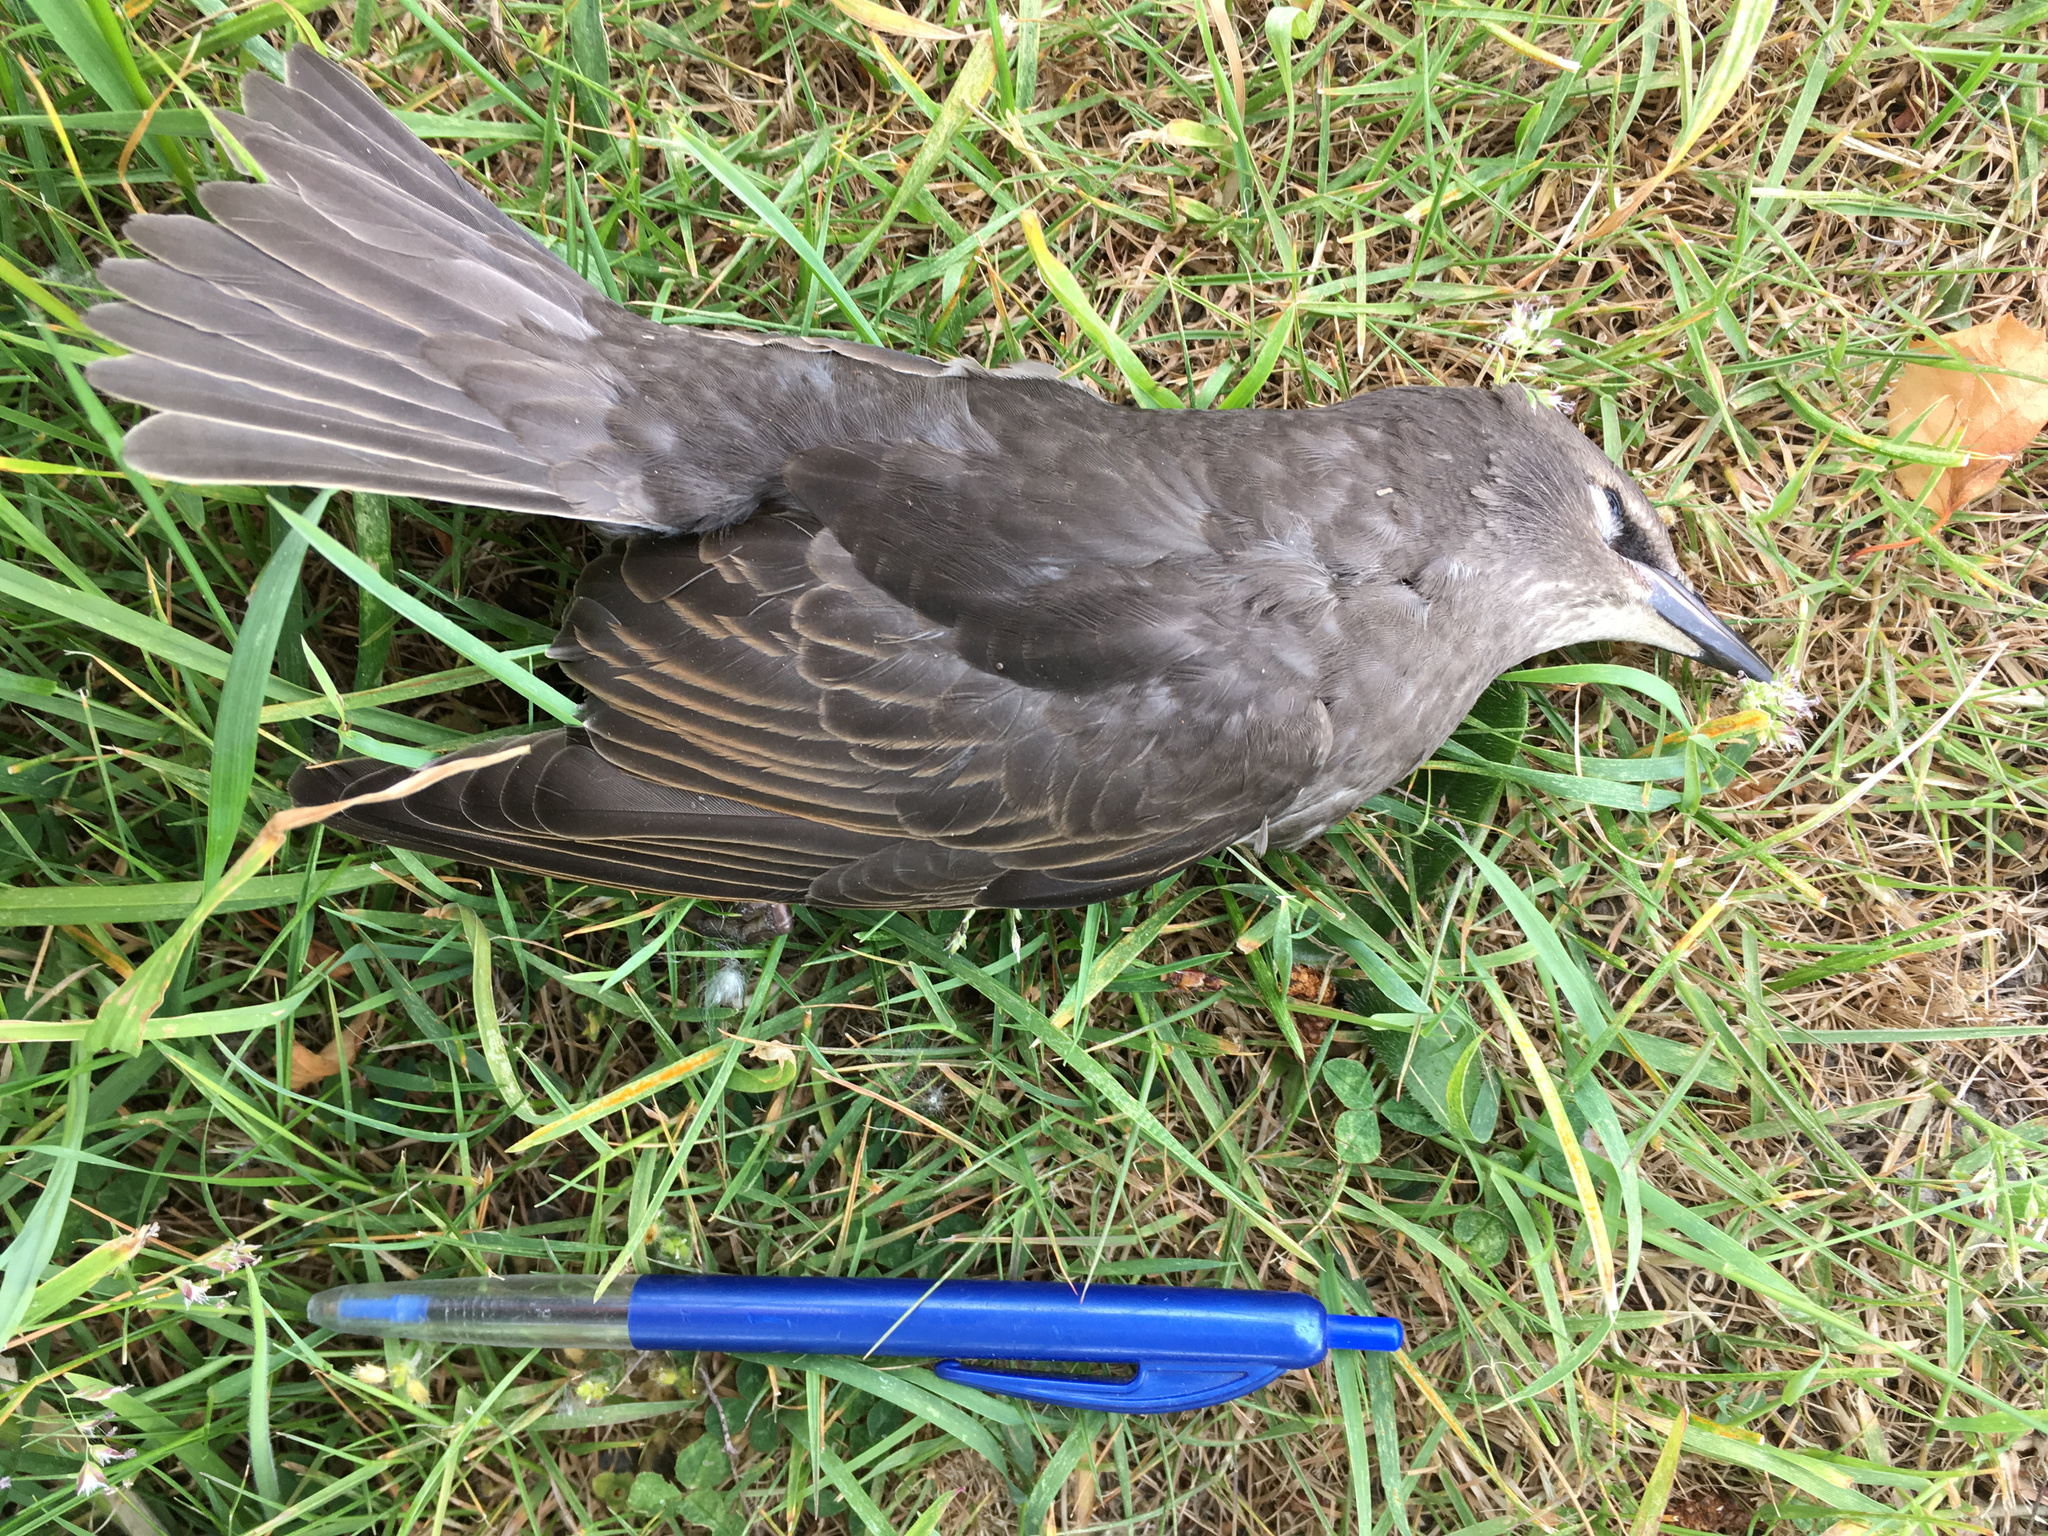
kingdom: Animalia
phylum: Chordata
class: Aves
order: Passeriformes
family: Sturnidae
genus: Sturnus
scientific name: Sturnus vulgaris
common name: Common starling
